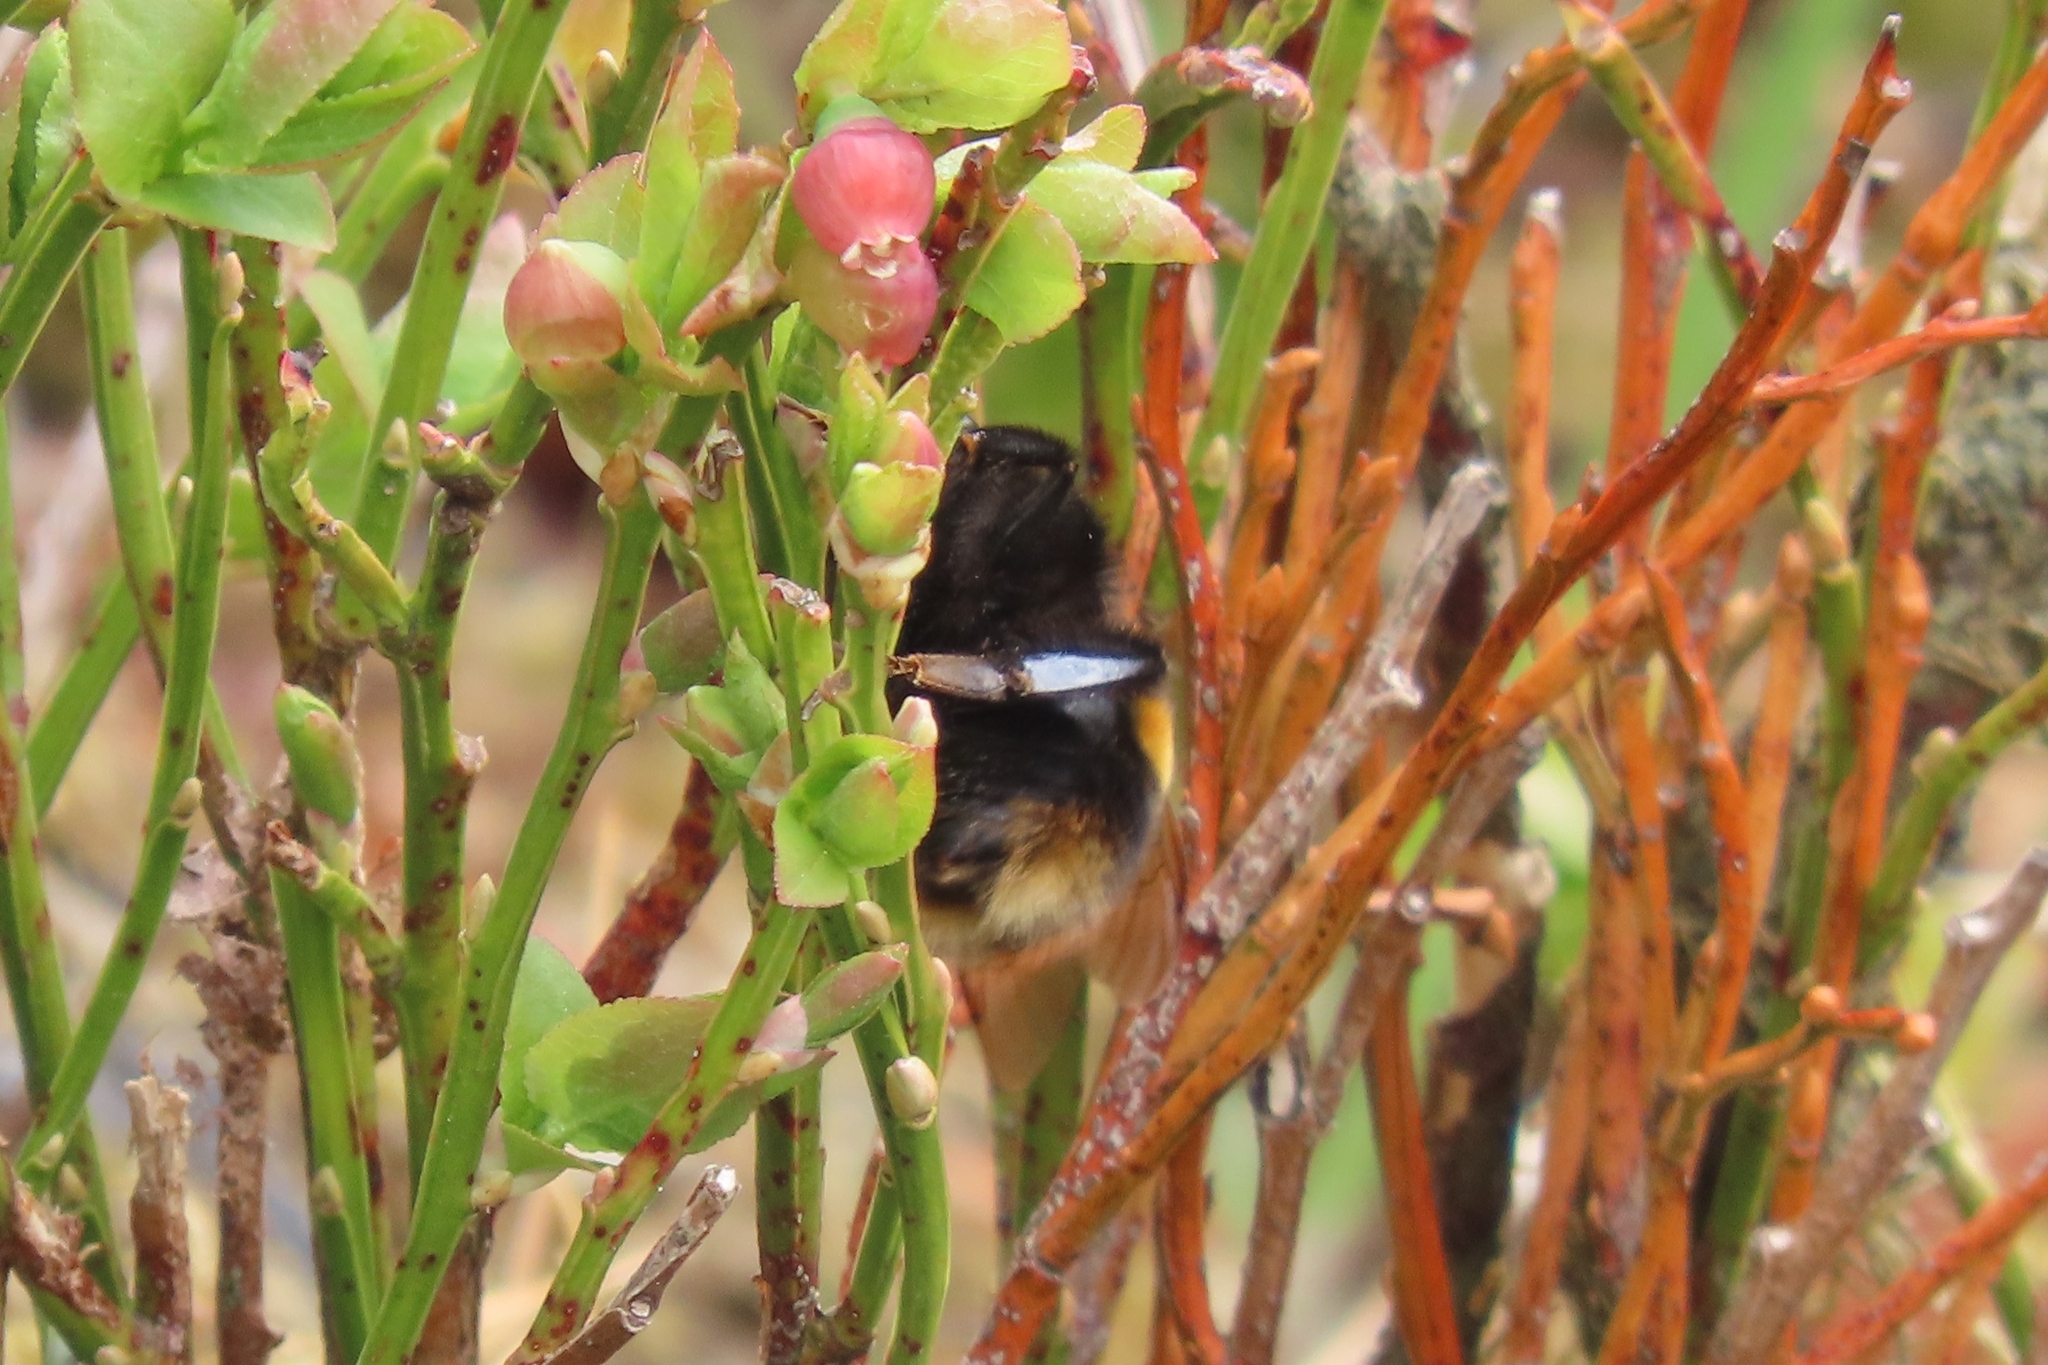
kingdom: Animalia
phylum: Arthropoda
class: Insecta
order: Hymenoptera
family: Apidae
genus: Bombus
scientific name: Bombus terrestris
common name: Buff-tailed bumblebee
